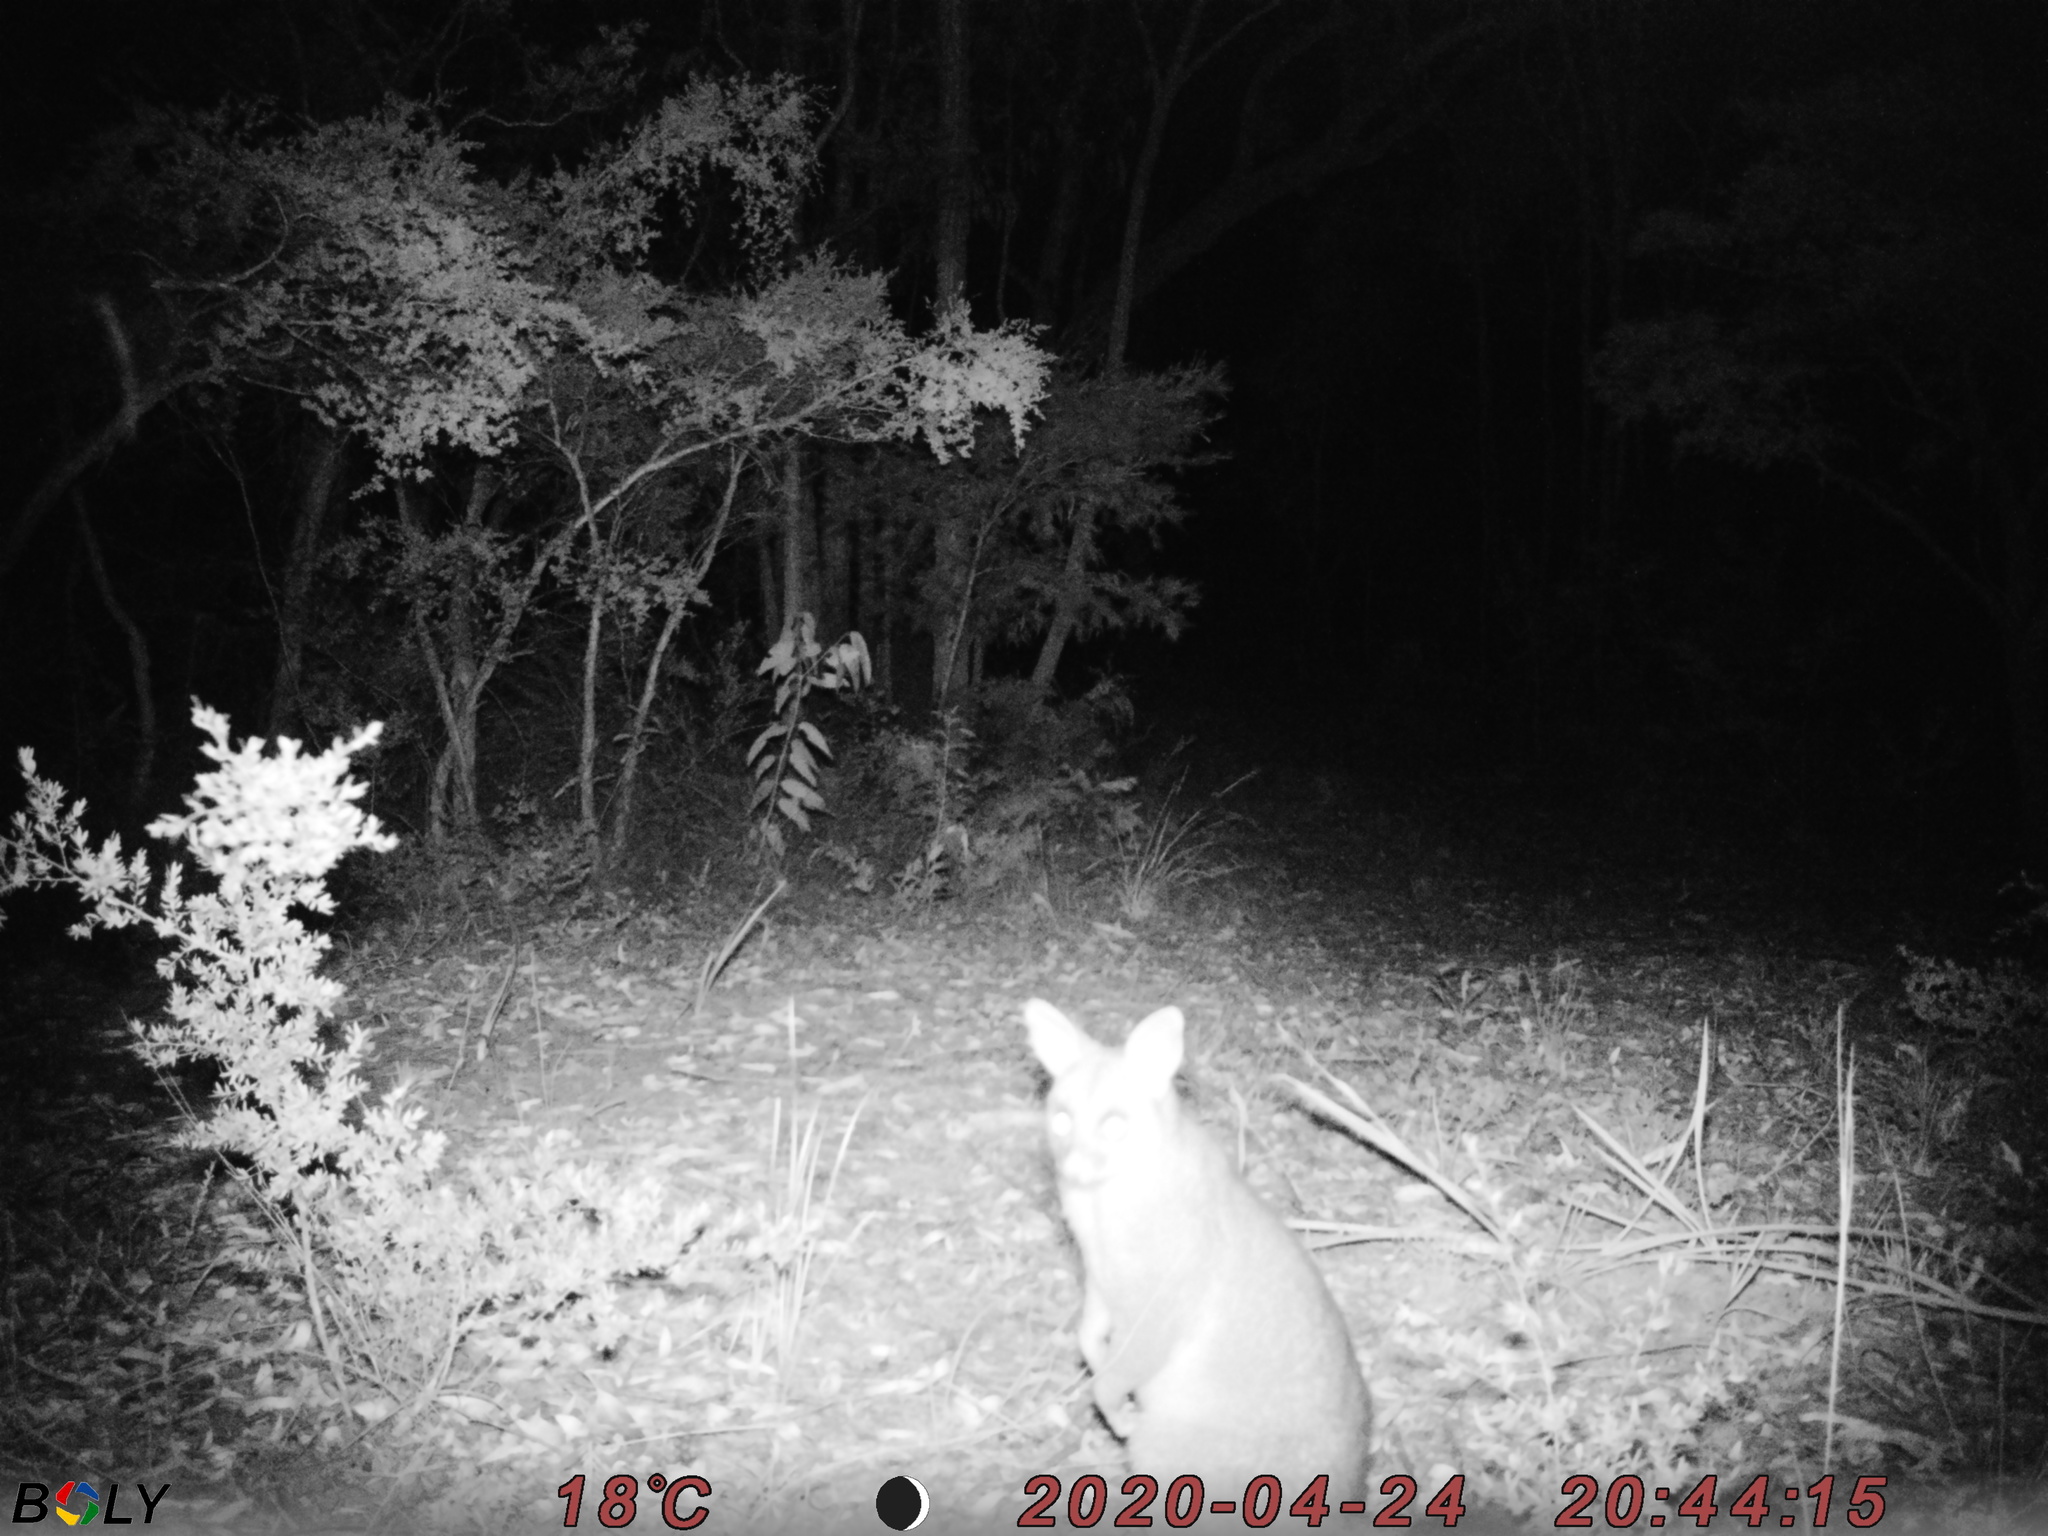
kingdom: Animalia
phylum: Chordata
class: Mammalia
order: Diprotodontia
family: Phalangeridae
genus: Trichosurus
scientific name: Trichosurus vulpecula
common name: Common brushtail
